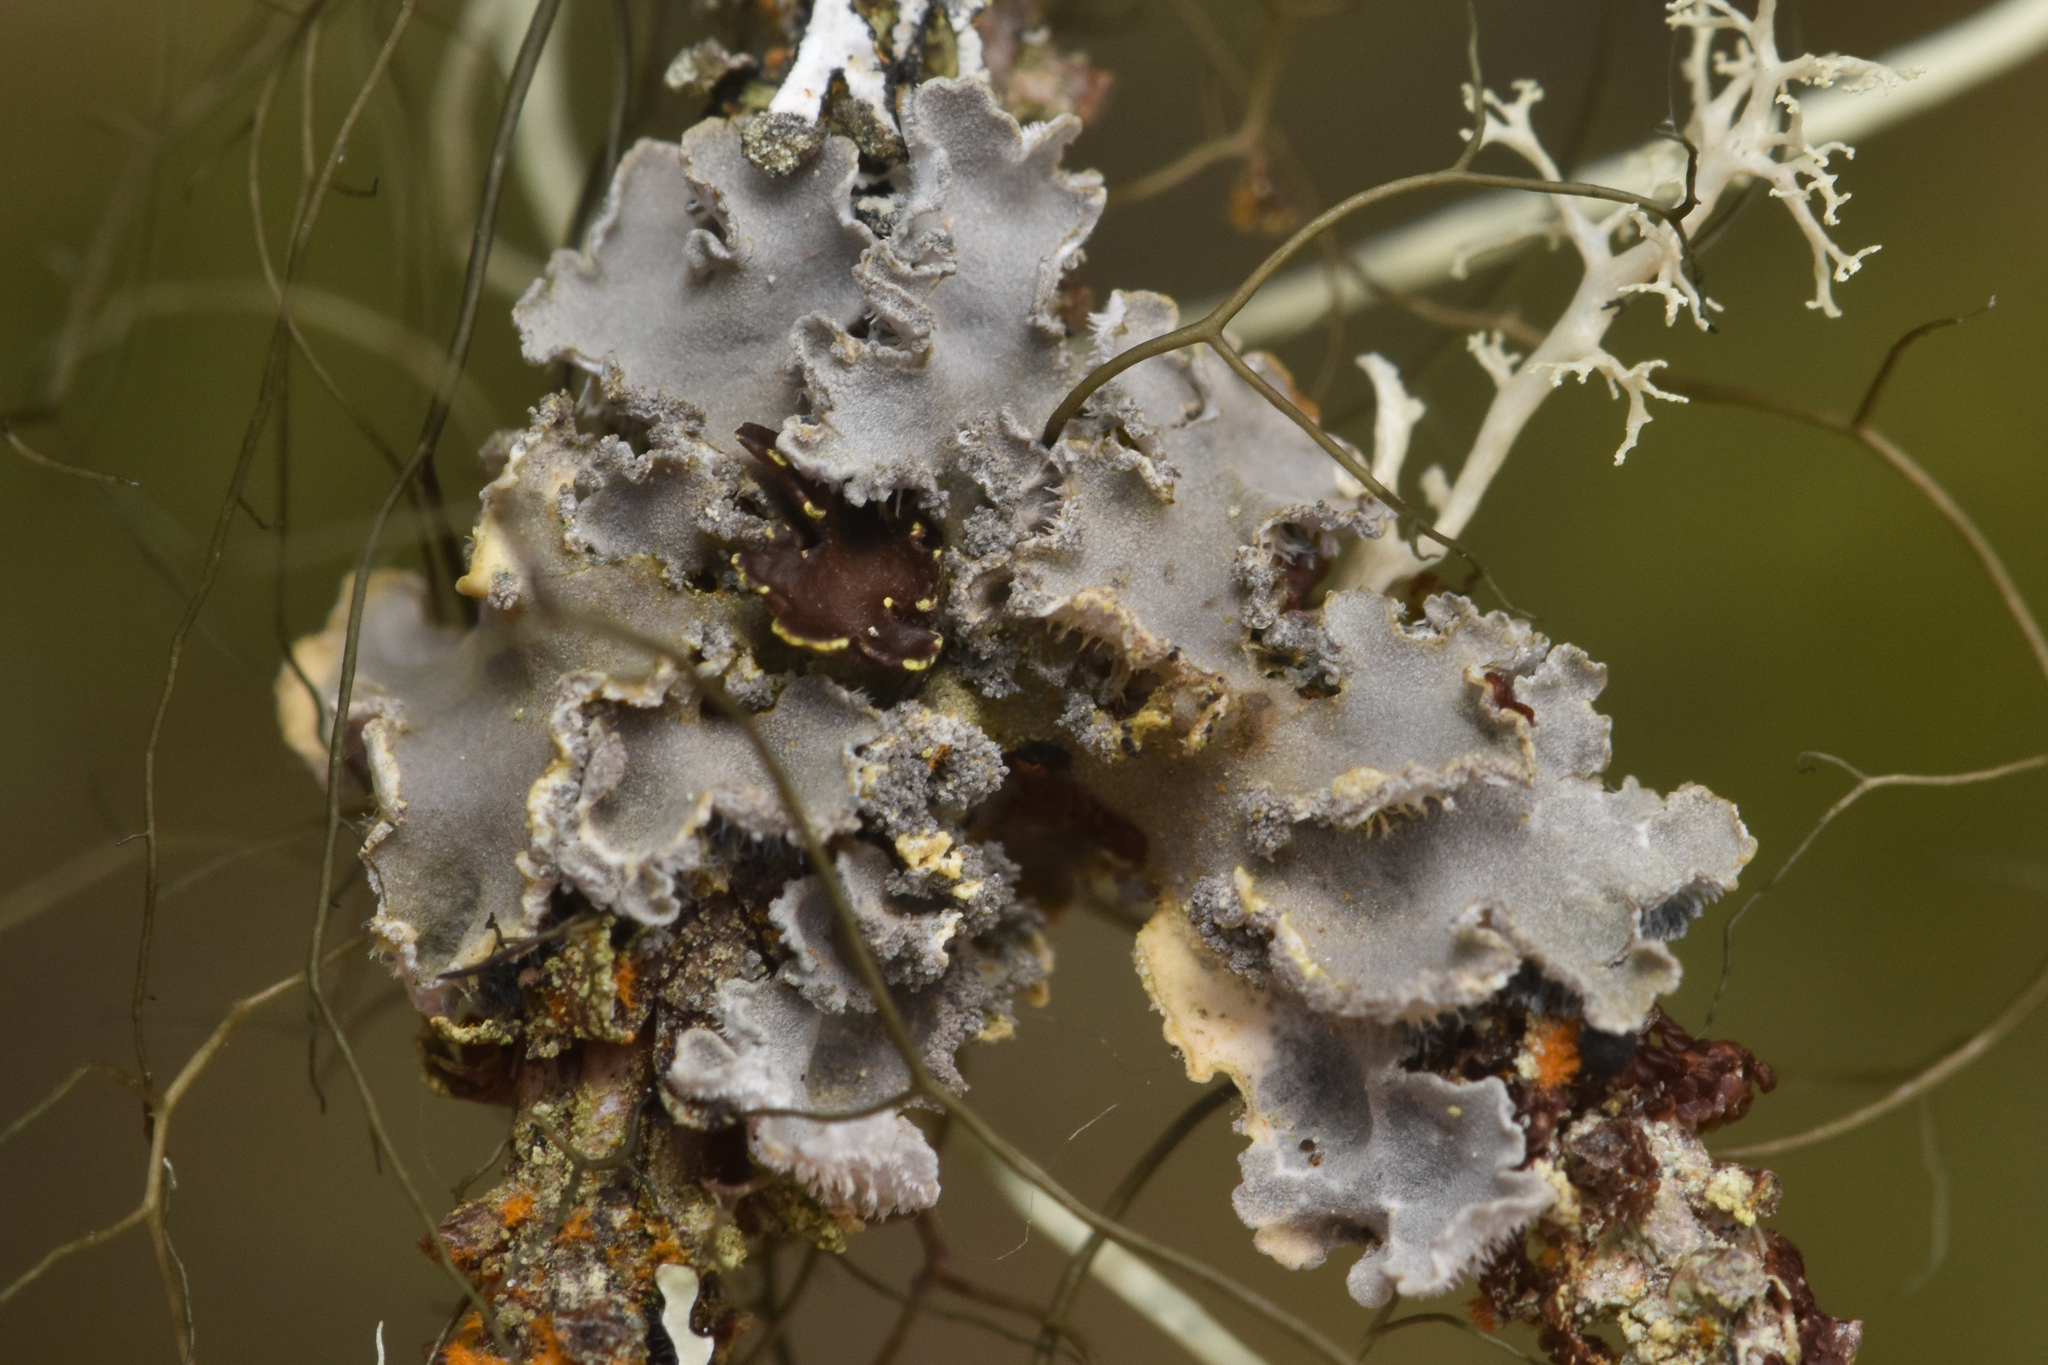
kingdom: Fungi
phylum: Ascomycota
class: Lecanoromycetes
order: Peltigerales
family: Pannariaceae
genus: Leioderma
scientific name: Leioderma sorediatum
